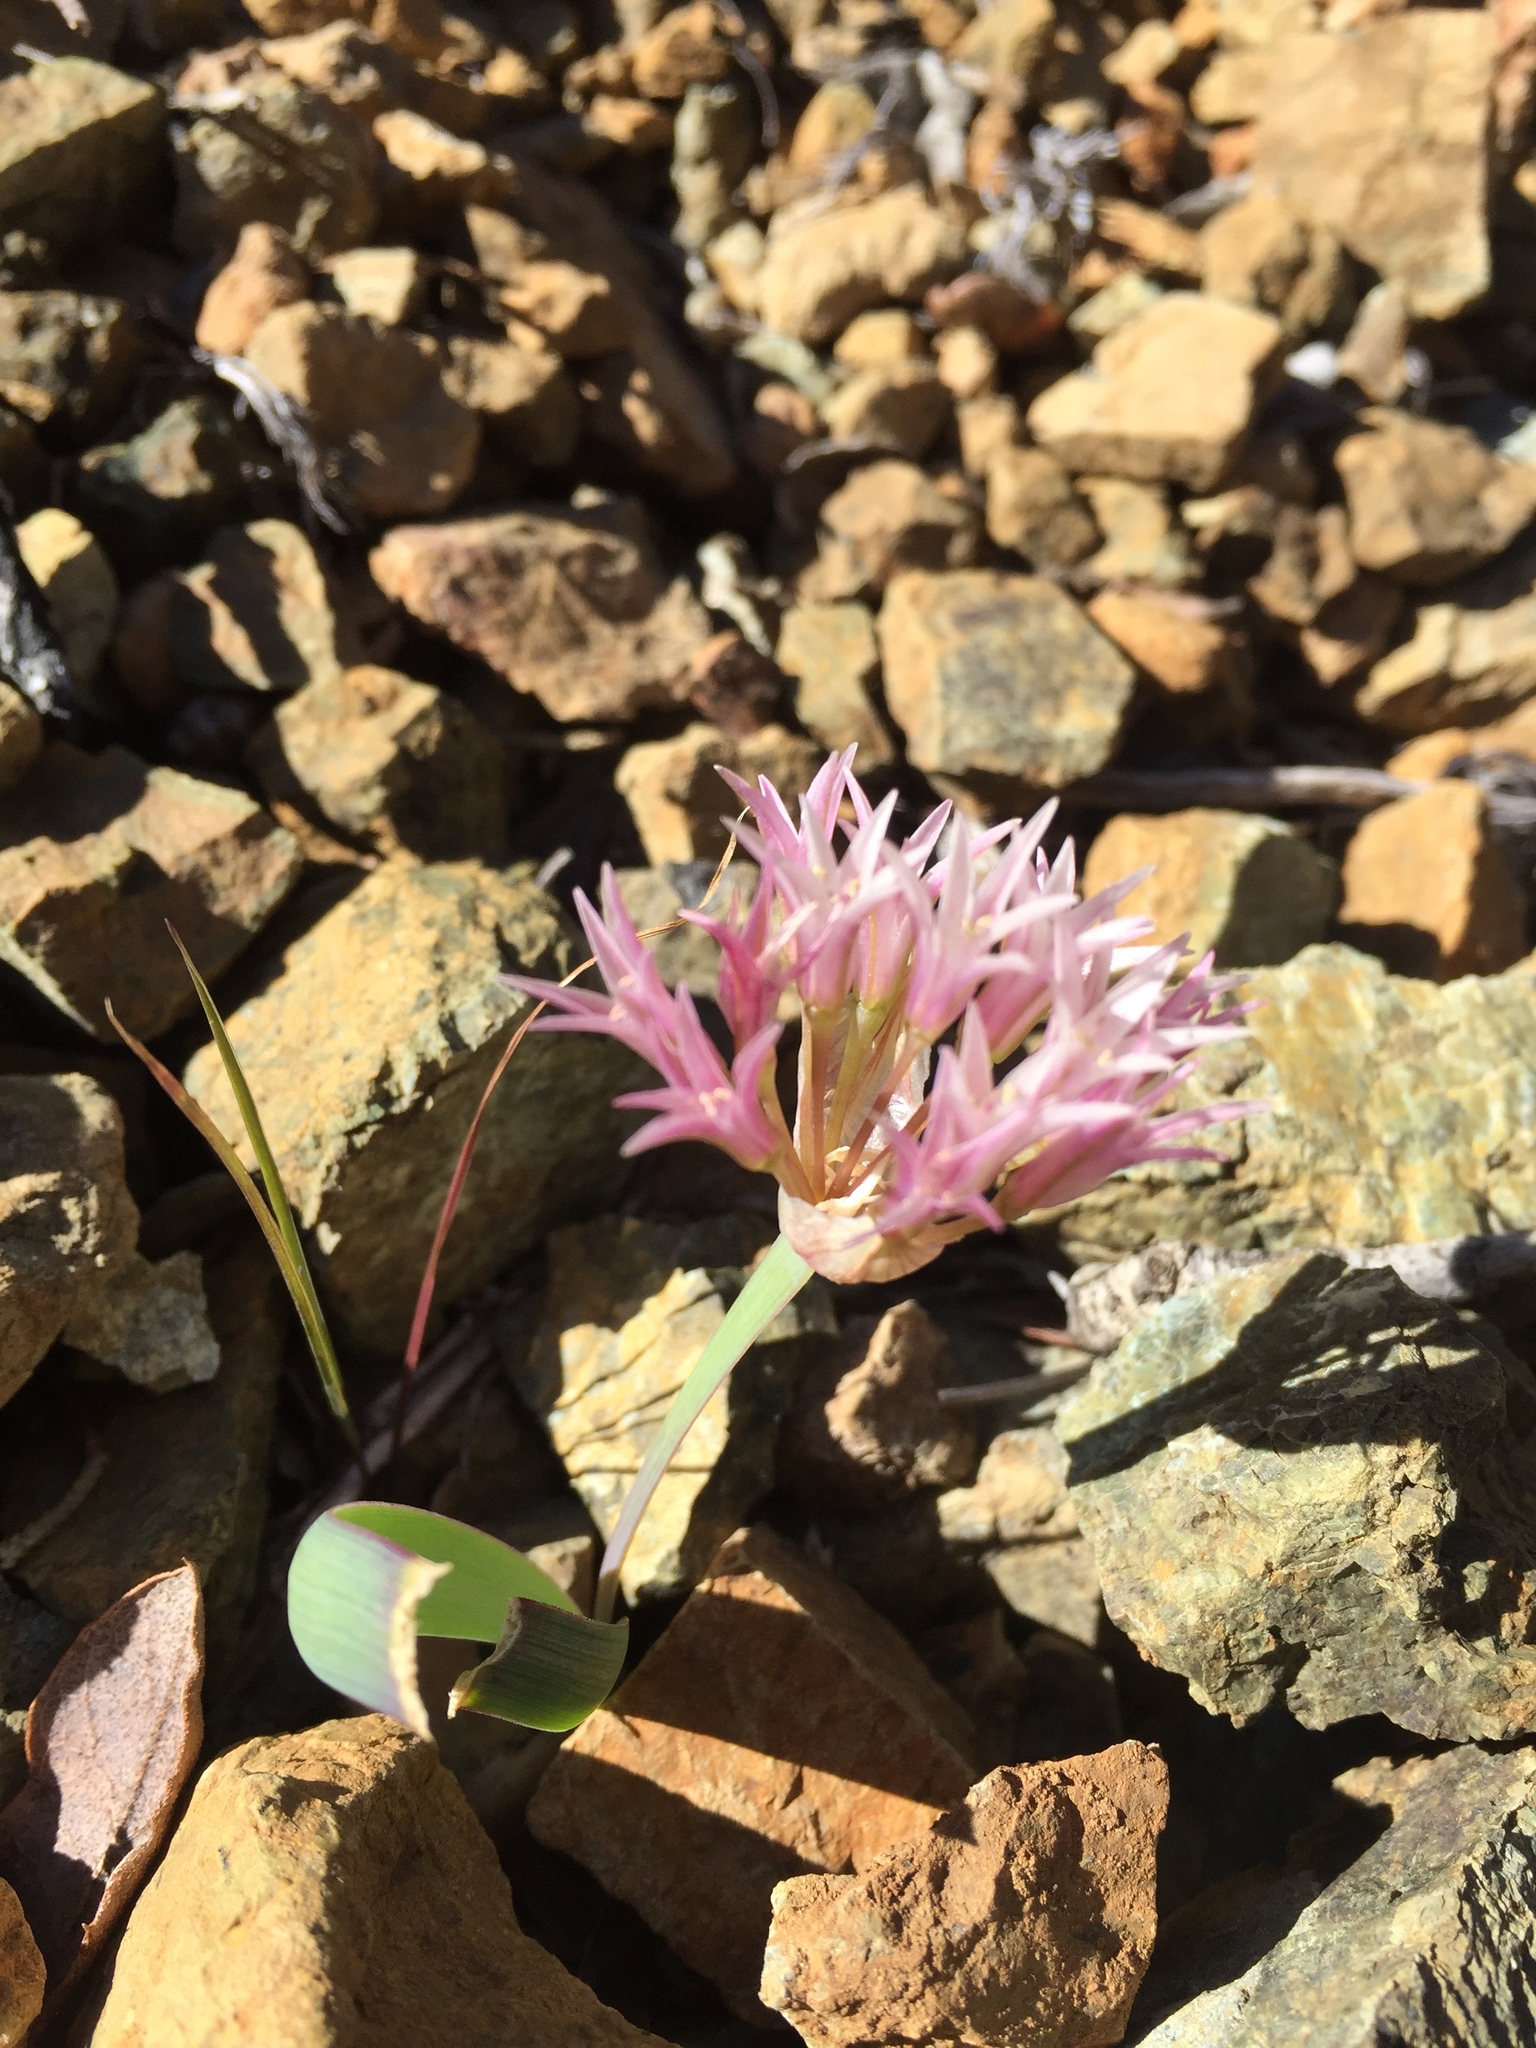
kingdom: Plantae
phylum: Tracheophyta
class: Liliopsida
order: Asparagales
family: Amaryllidaceae
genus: Allium
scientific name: Allium falcifolium
